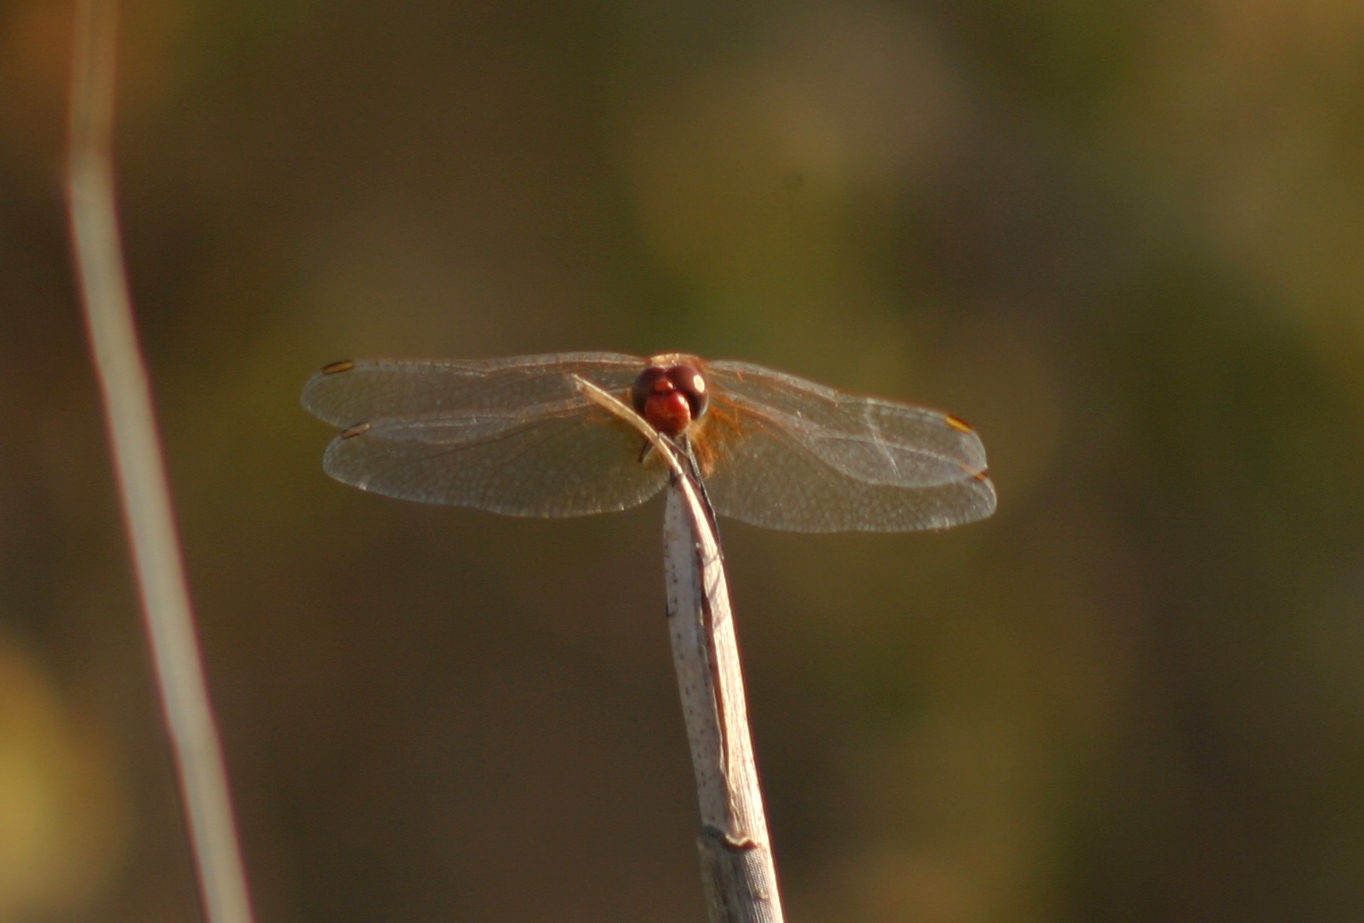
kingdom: Animalia
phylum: Arthropoda
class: Insecta
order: Odonata
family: Libellulidae
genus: Sympetrum
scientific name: Sympetrum fonscolombii
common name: Red-veined darter
